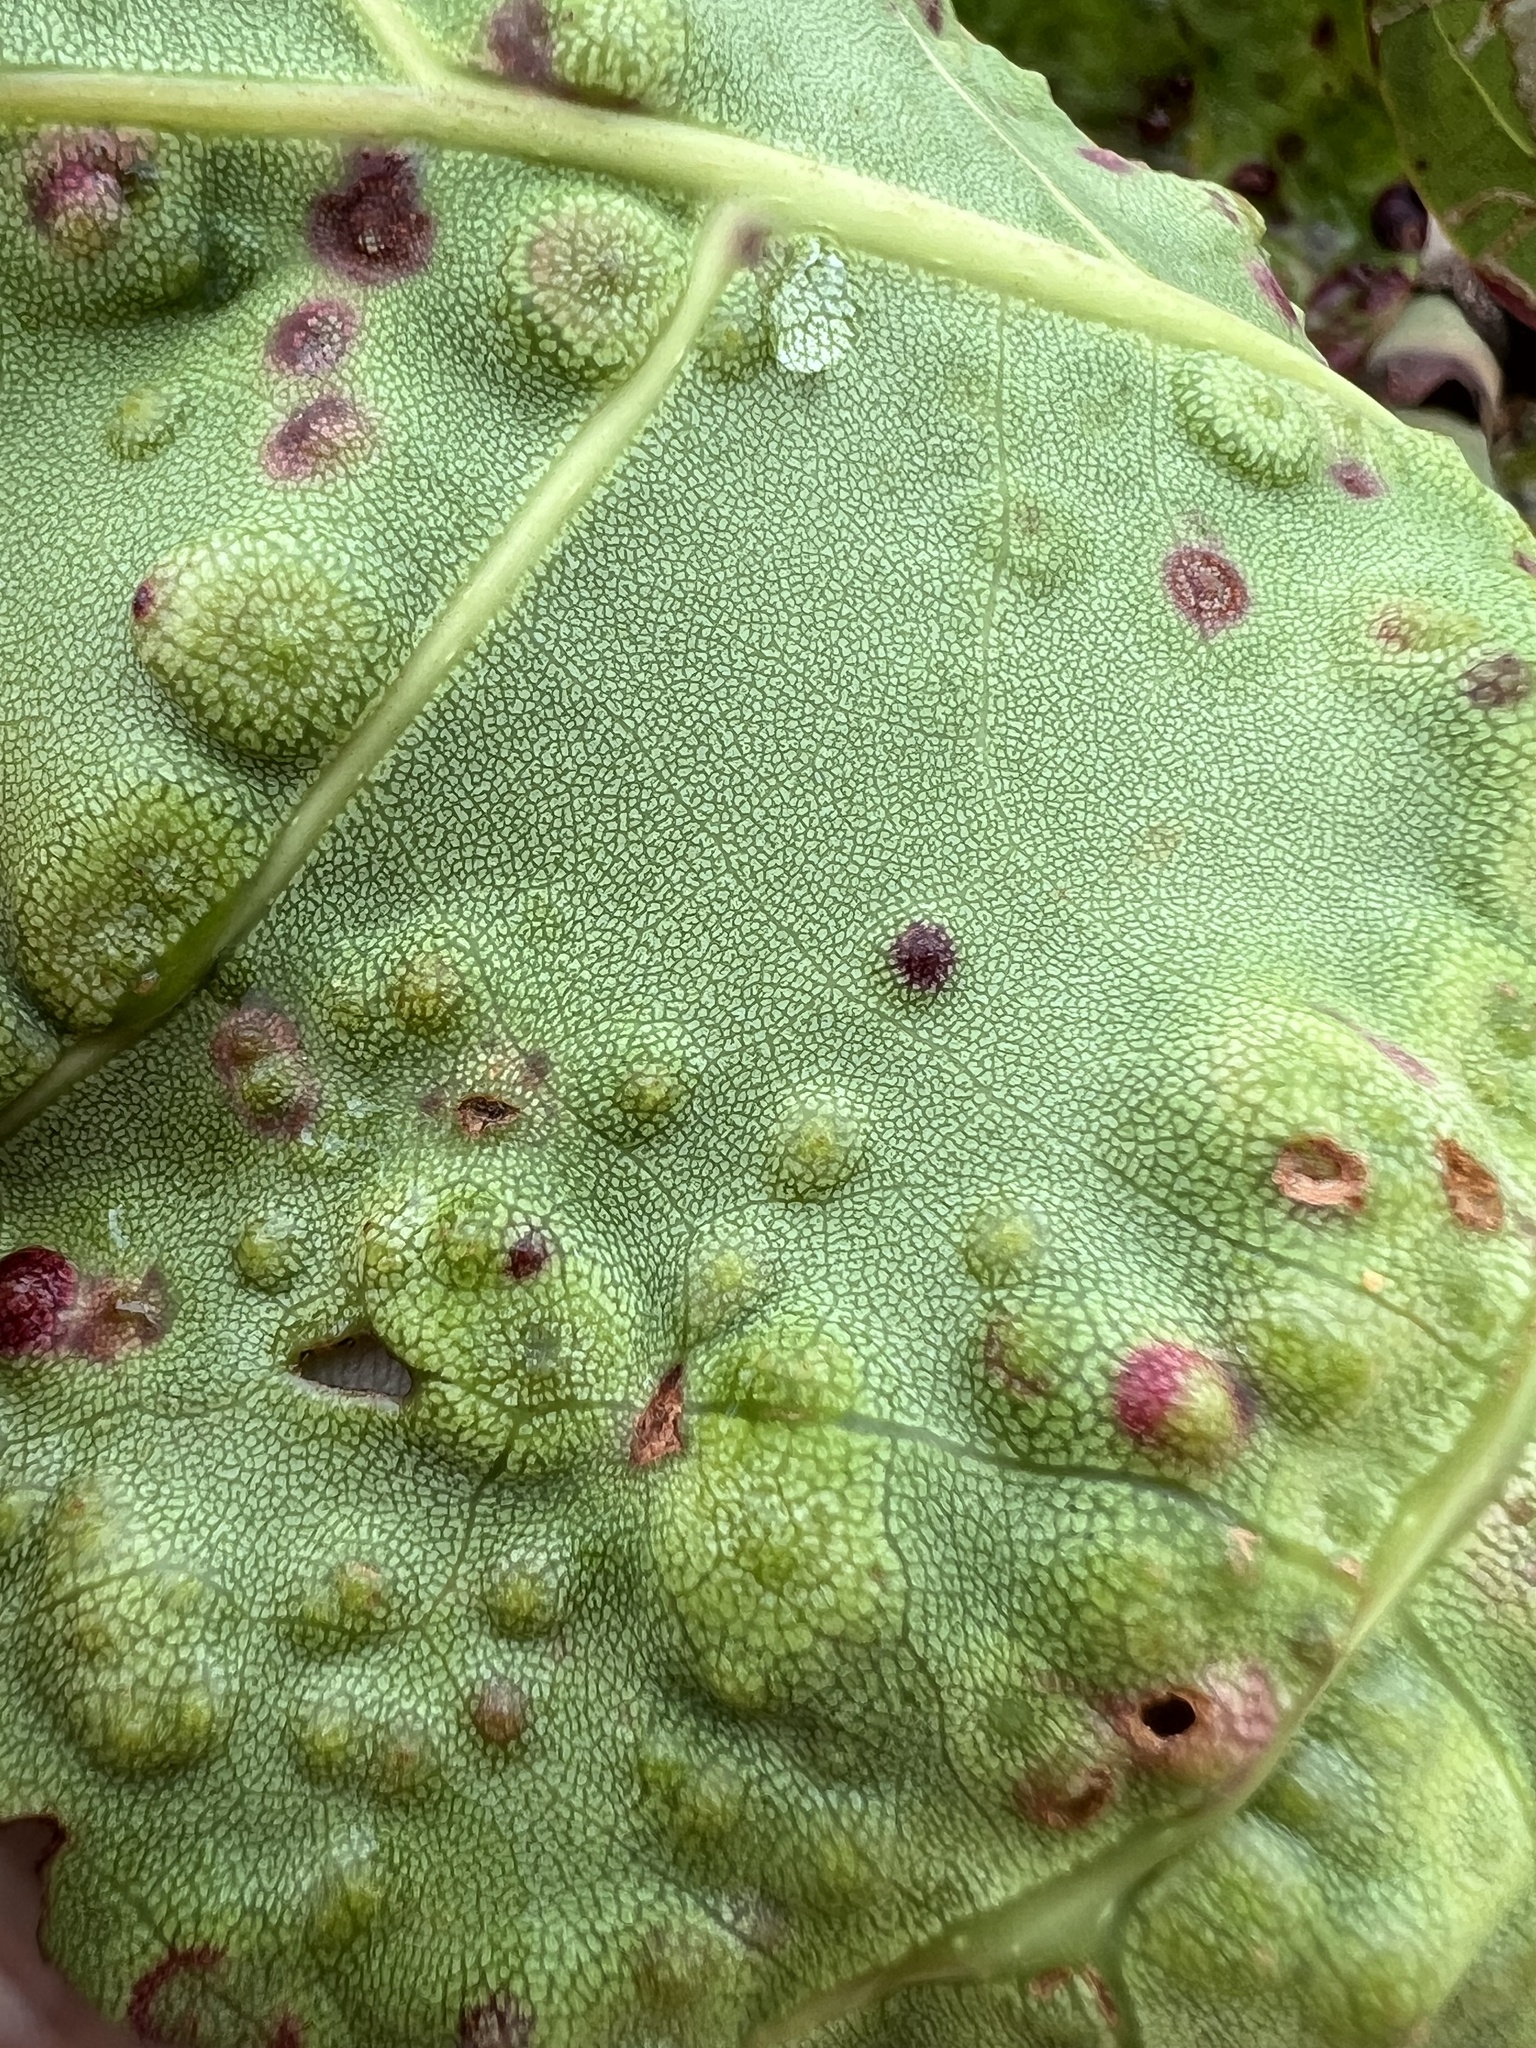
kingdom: Animalia
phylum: Arthropoda
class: Insecta
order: Diptera
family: Cecidomyiidae
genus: Ctenodactylomyia
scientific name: Ctenodactylomyia watsoni
